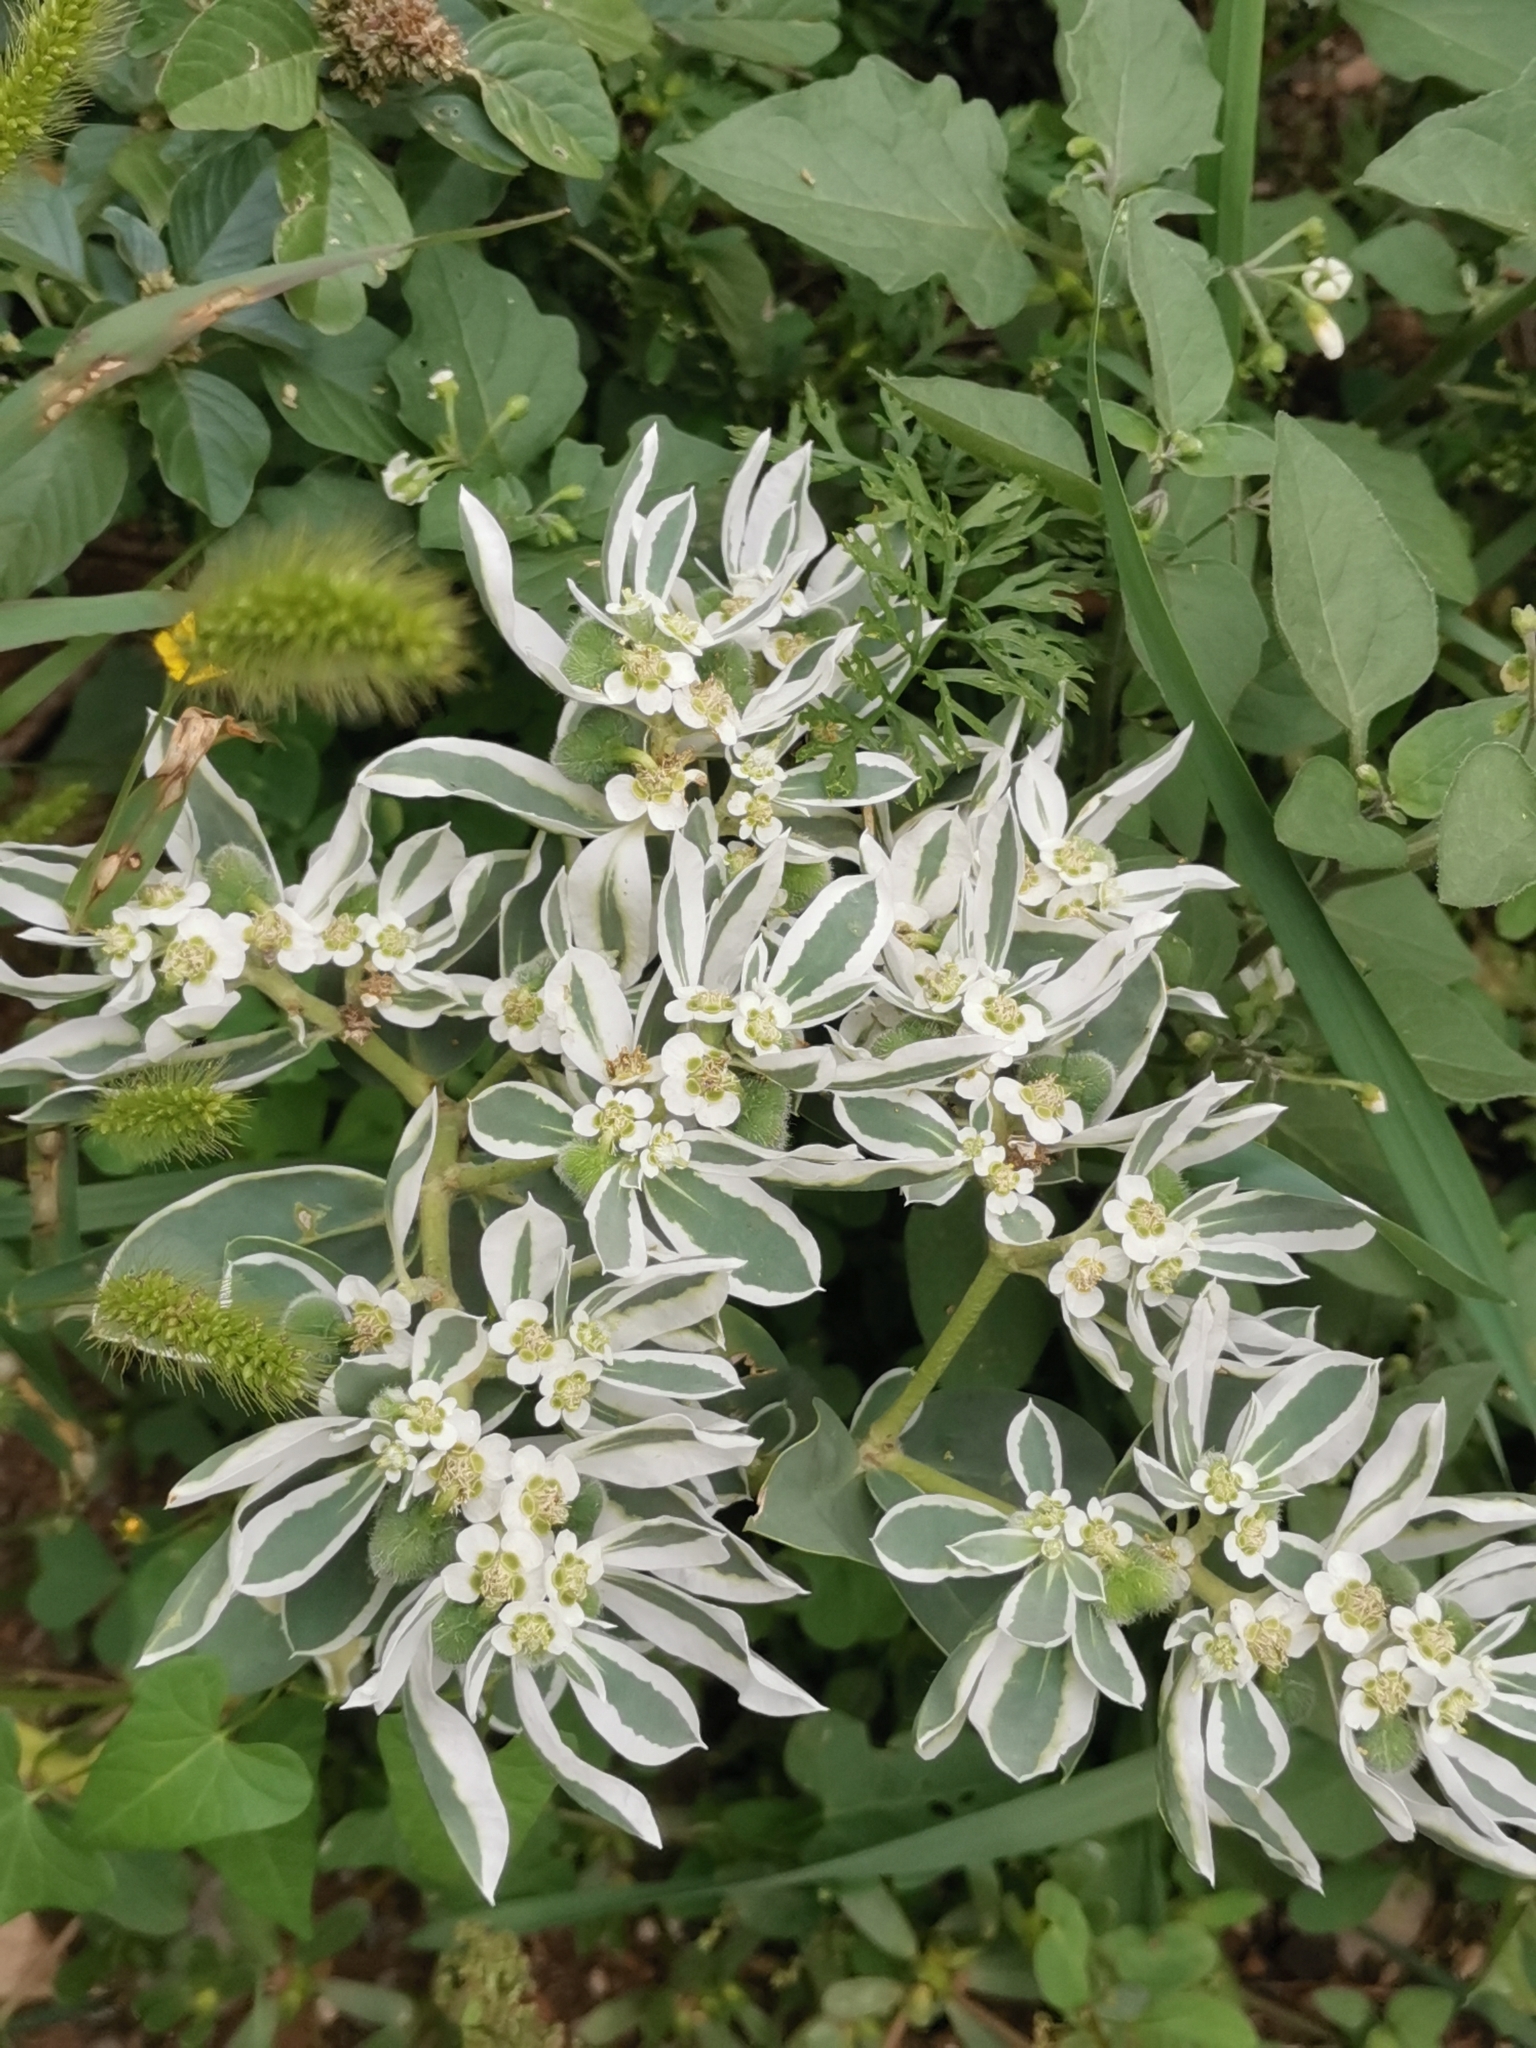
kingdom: Plantae
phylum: Tracheophyta
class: Magnoliopsida
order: Malpighiales
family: Euphorbiaceae
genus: Euphorbia
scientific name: Euphorbia marginata
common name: Ghostweed
